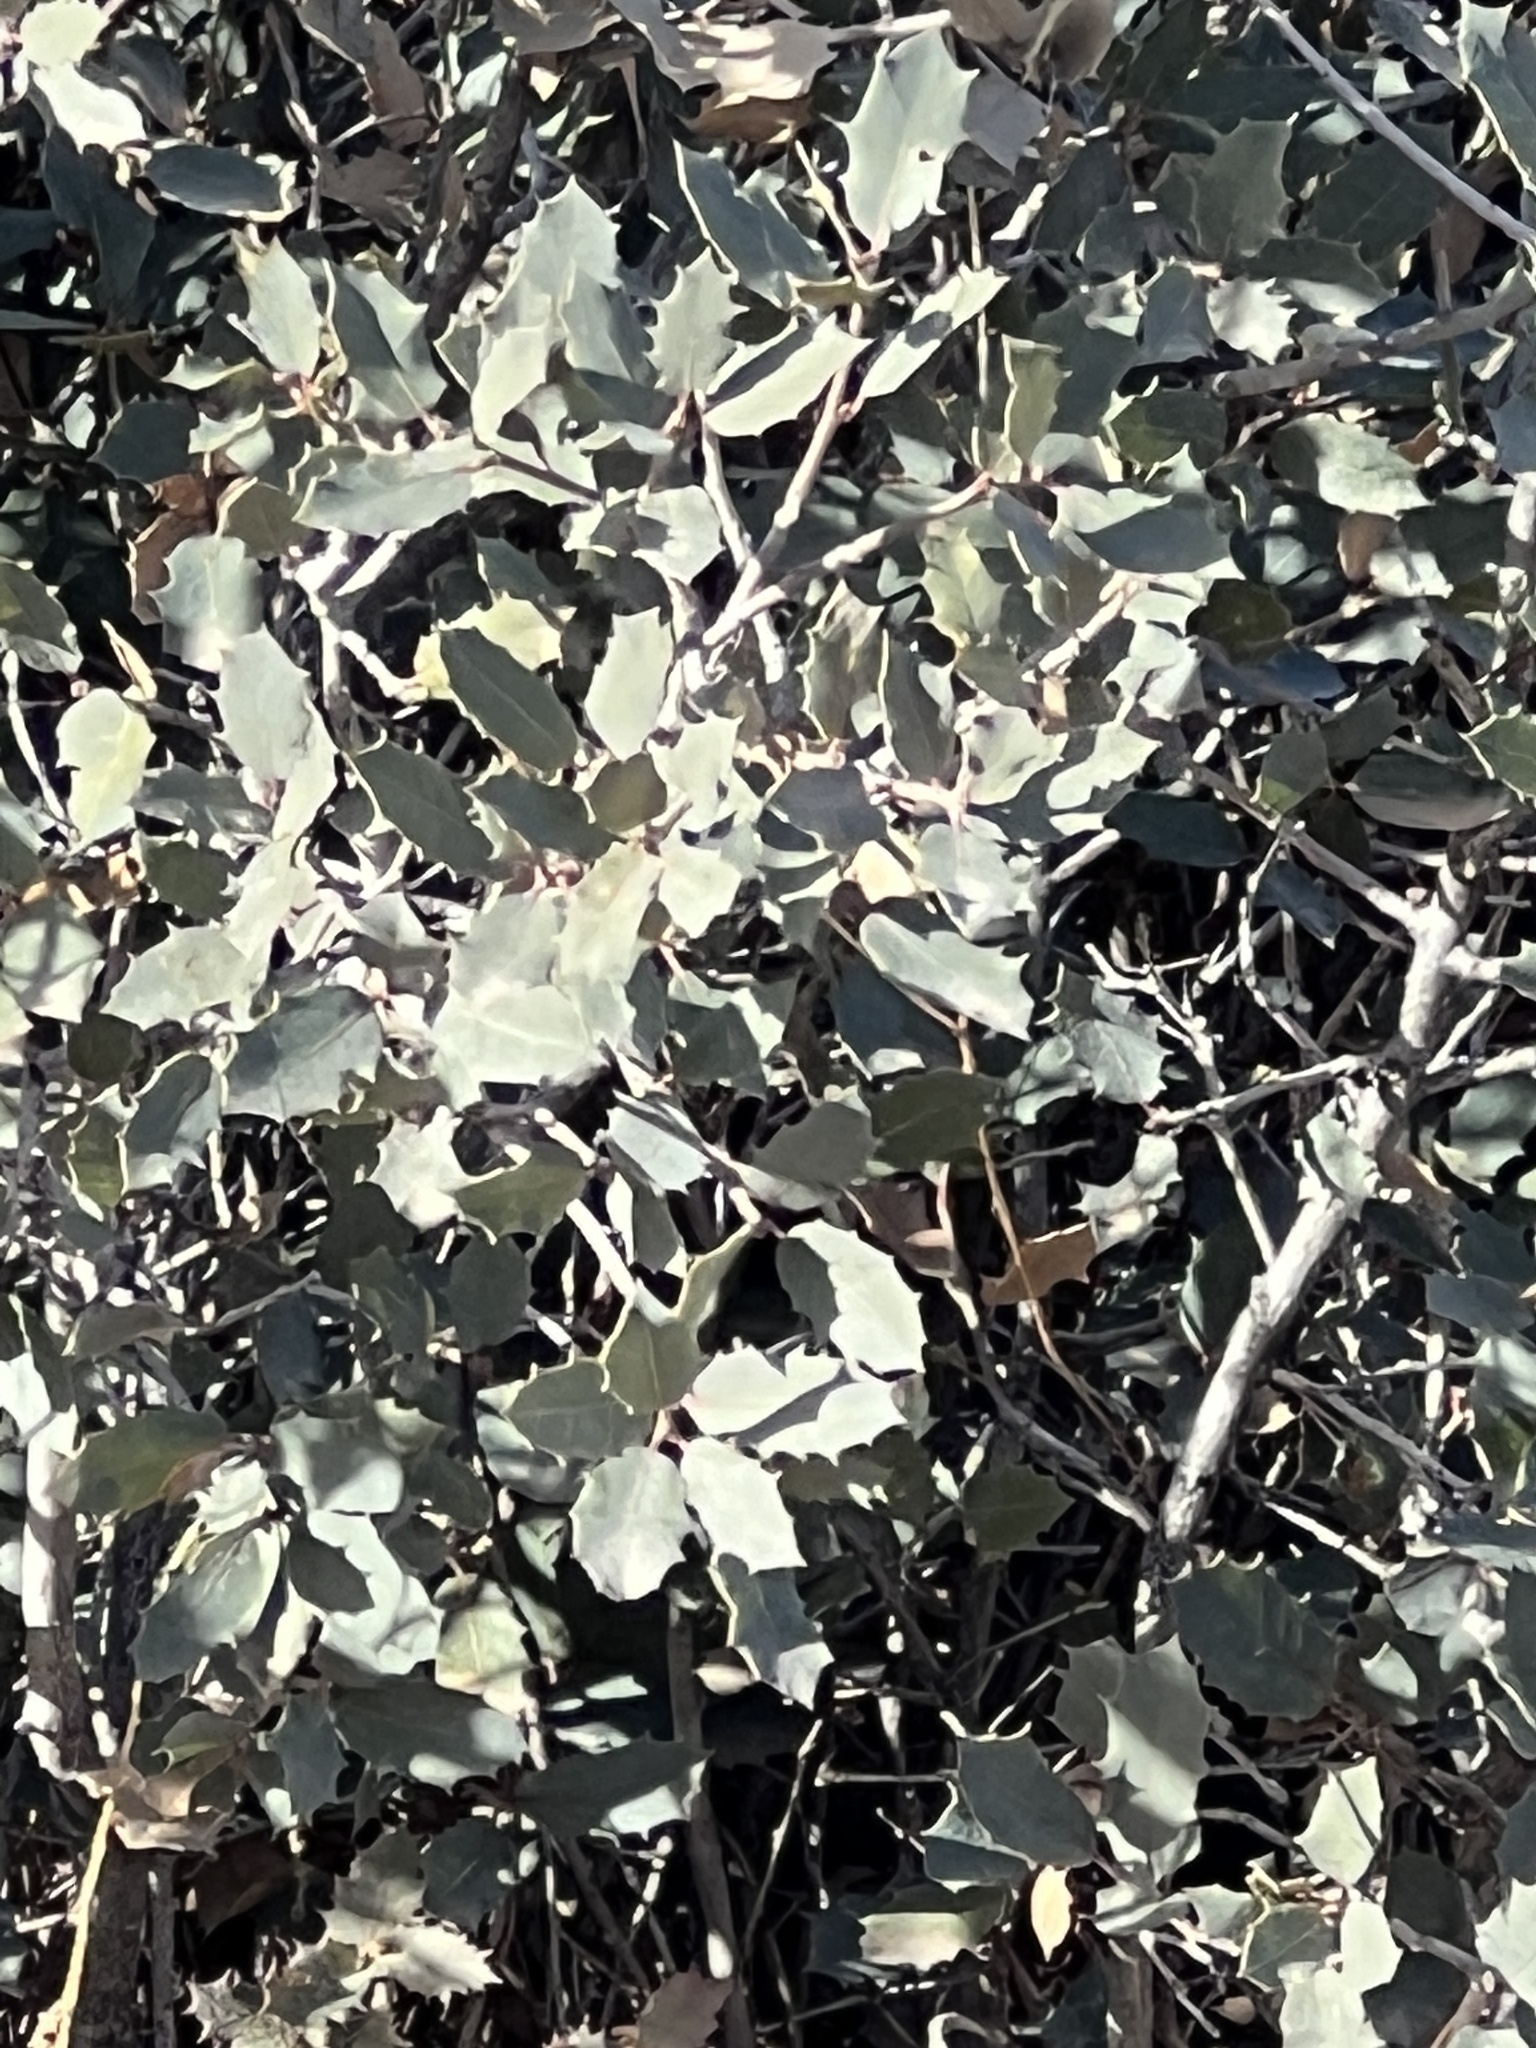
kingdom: Plantae
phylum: Tracheophyta
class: Magnoliopsida
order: Fagales
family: Fagaceae
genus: Quercus
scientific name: Quercus turbinella
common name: Sonoran scrub oak
